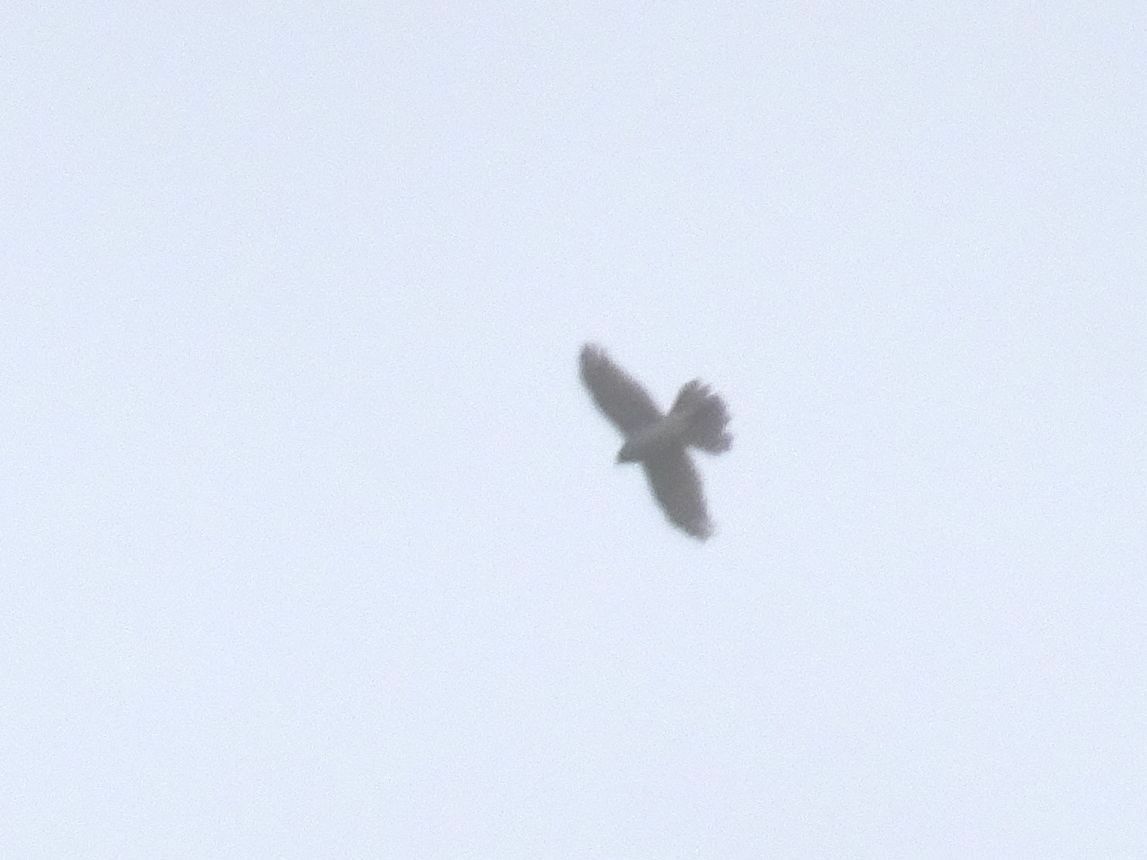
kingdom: Animalia
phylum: Chordata
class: Aves
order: Accipitriformes
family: Accipitridae
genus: Accipiter
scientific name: Accipiter nisus
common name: Eurasian sparrowhawk
